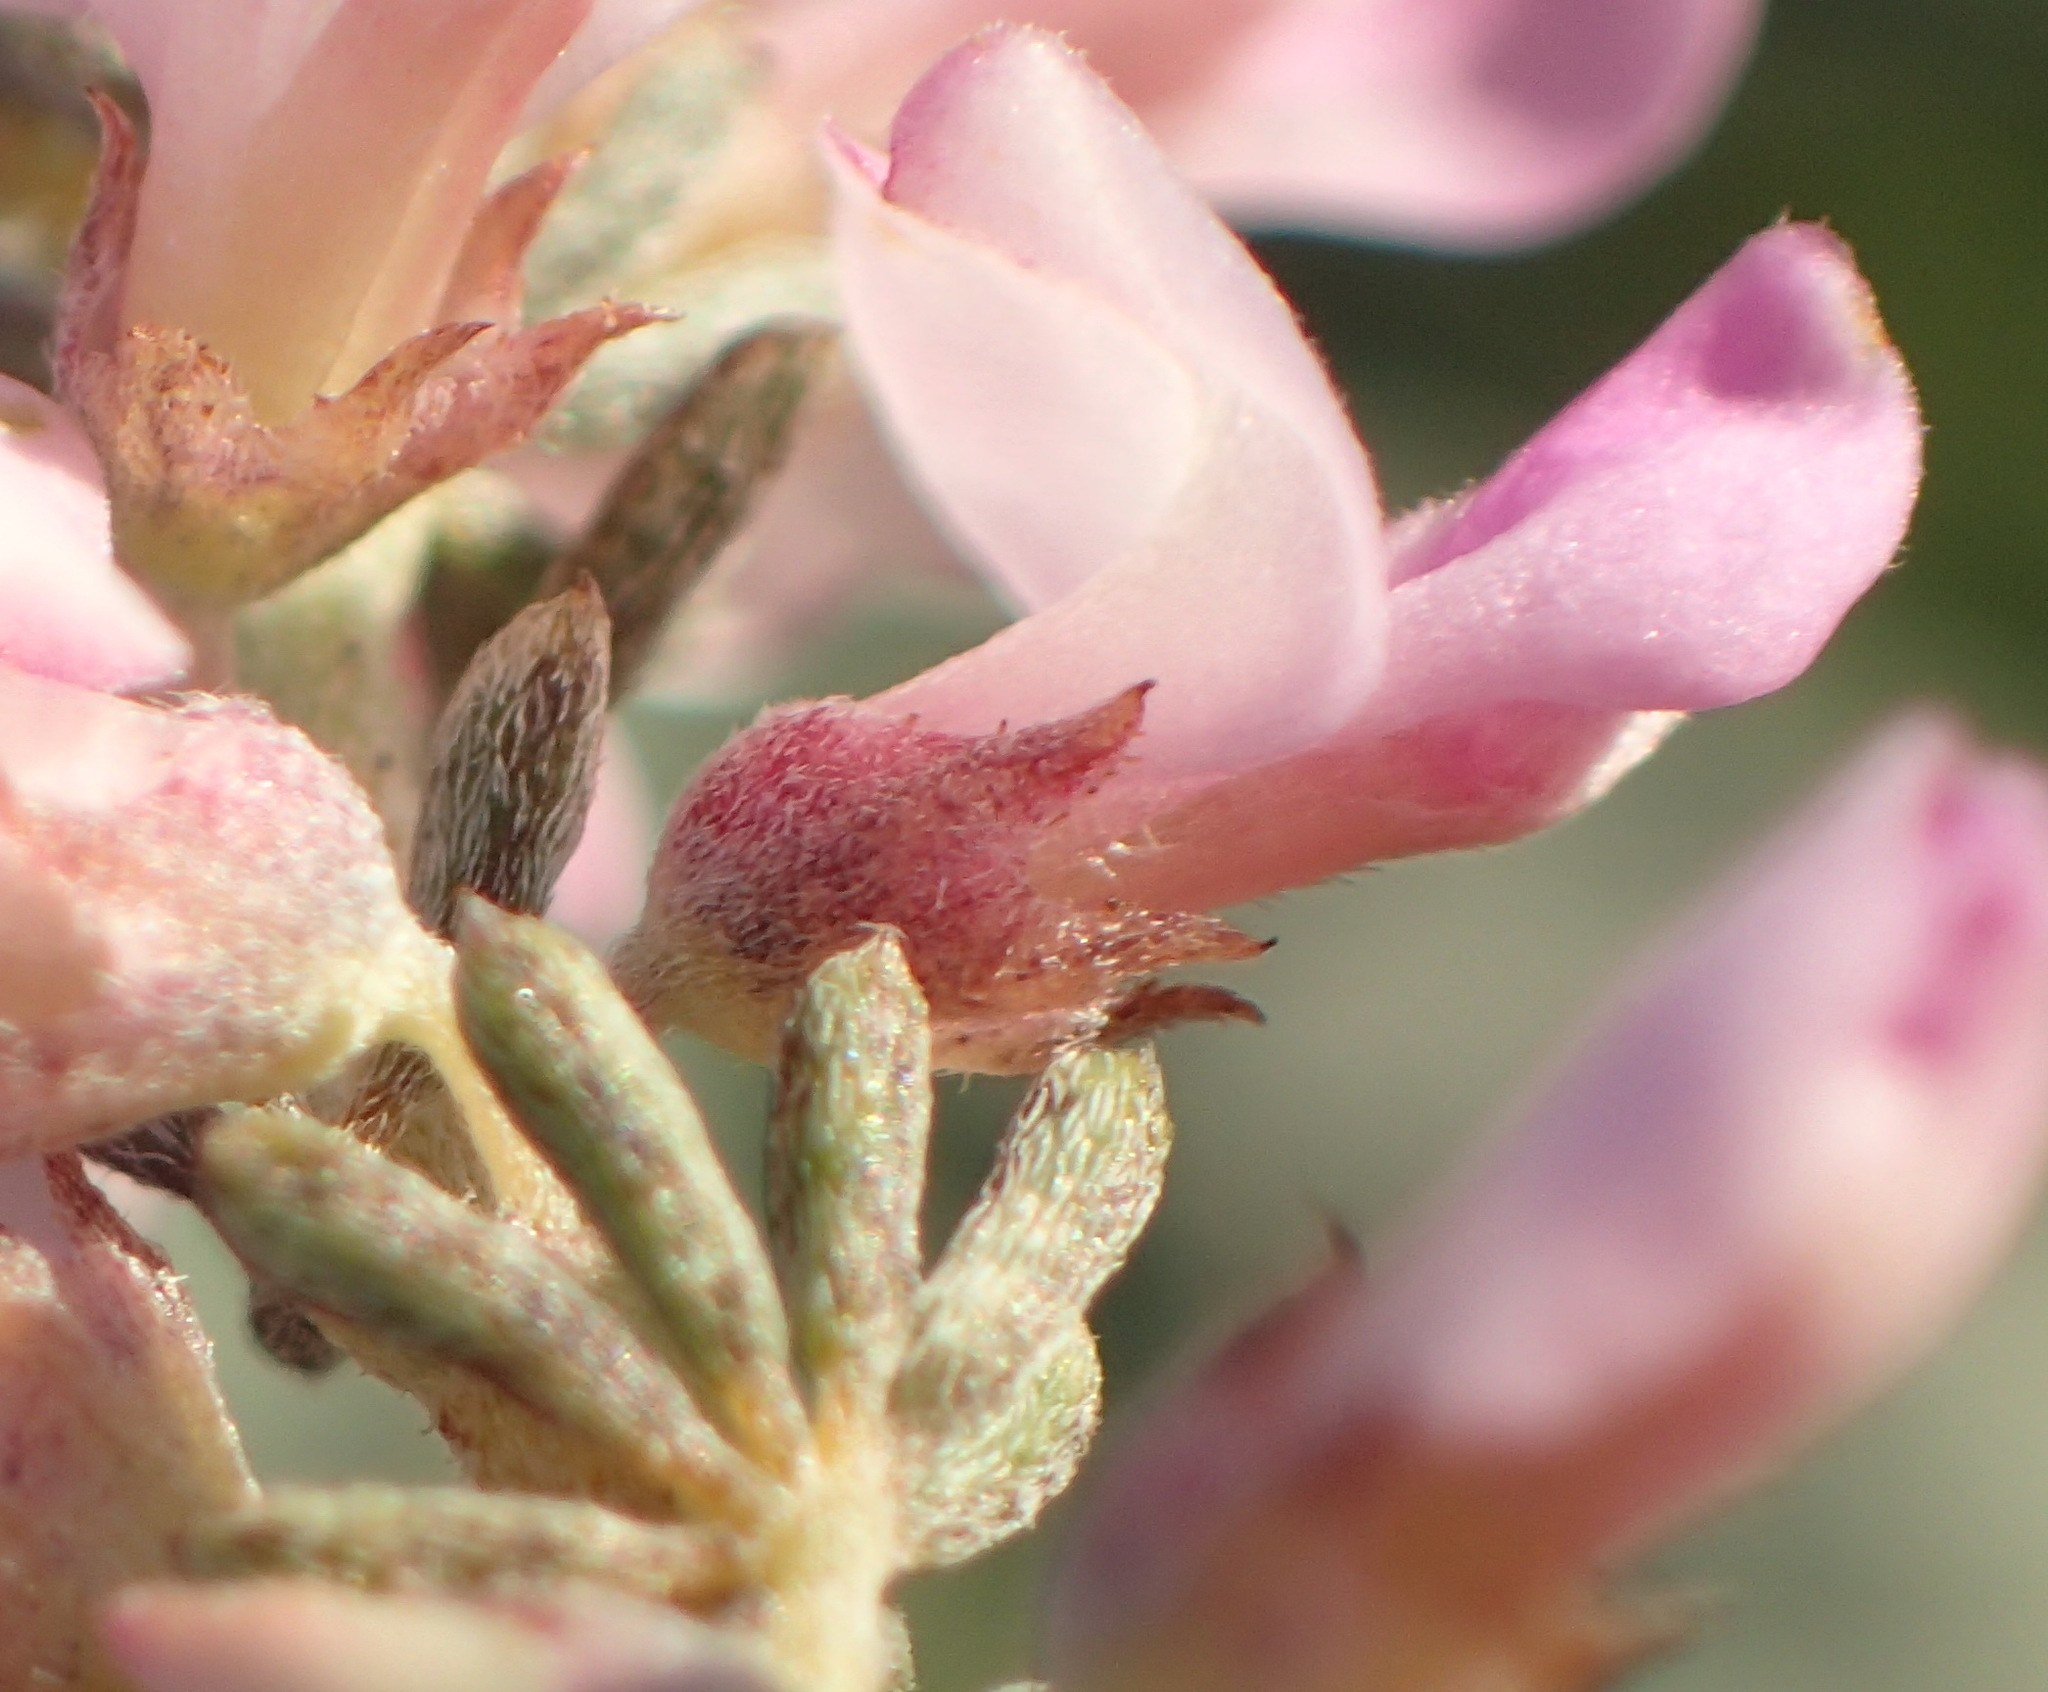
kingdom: Plantae
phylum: Tracheophyta
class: Magnoliopsida
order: Fabales
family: Fabaceae
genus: Indigofera
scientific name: Indigofera pappei
